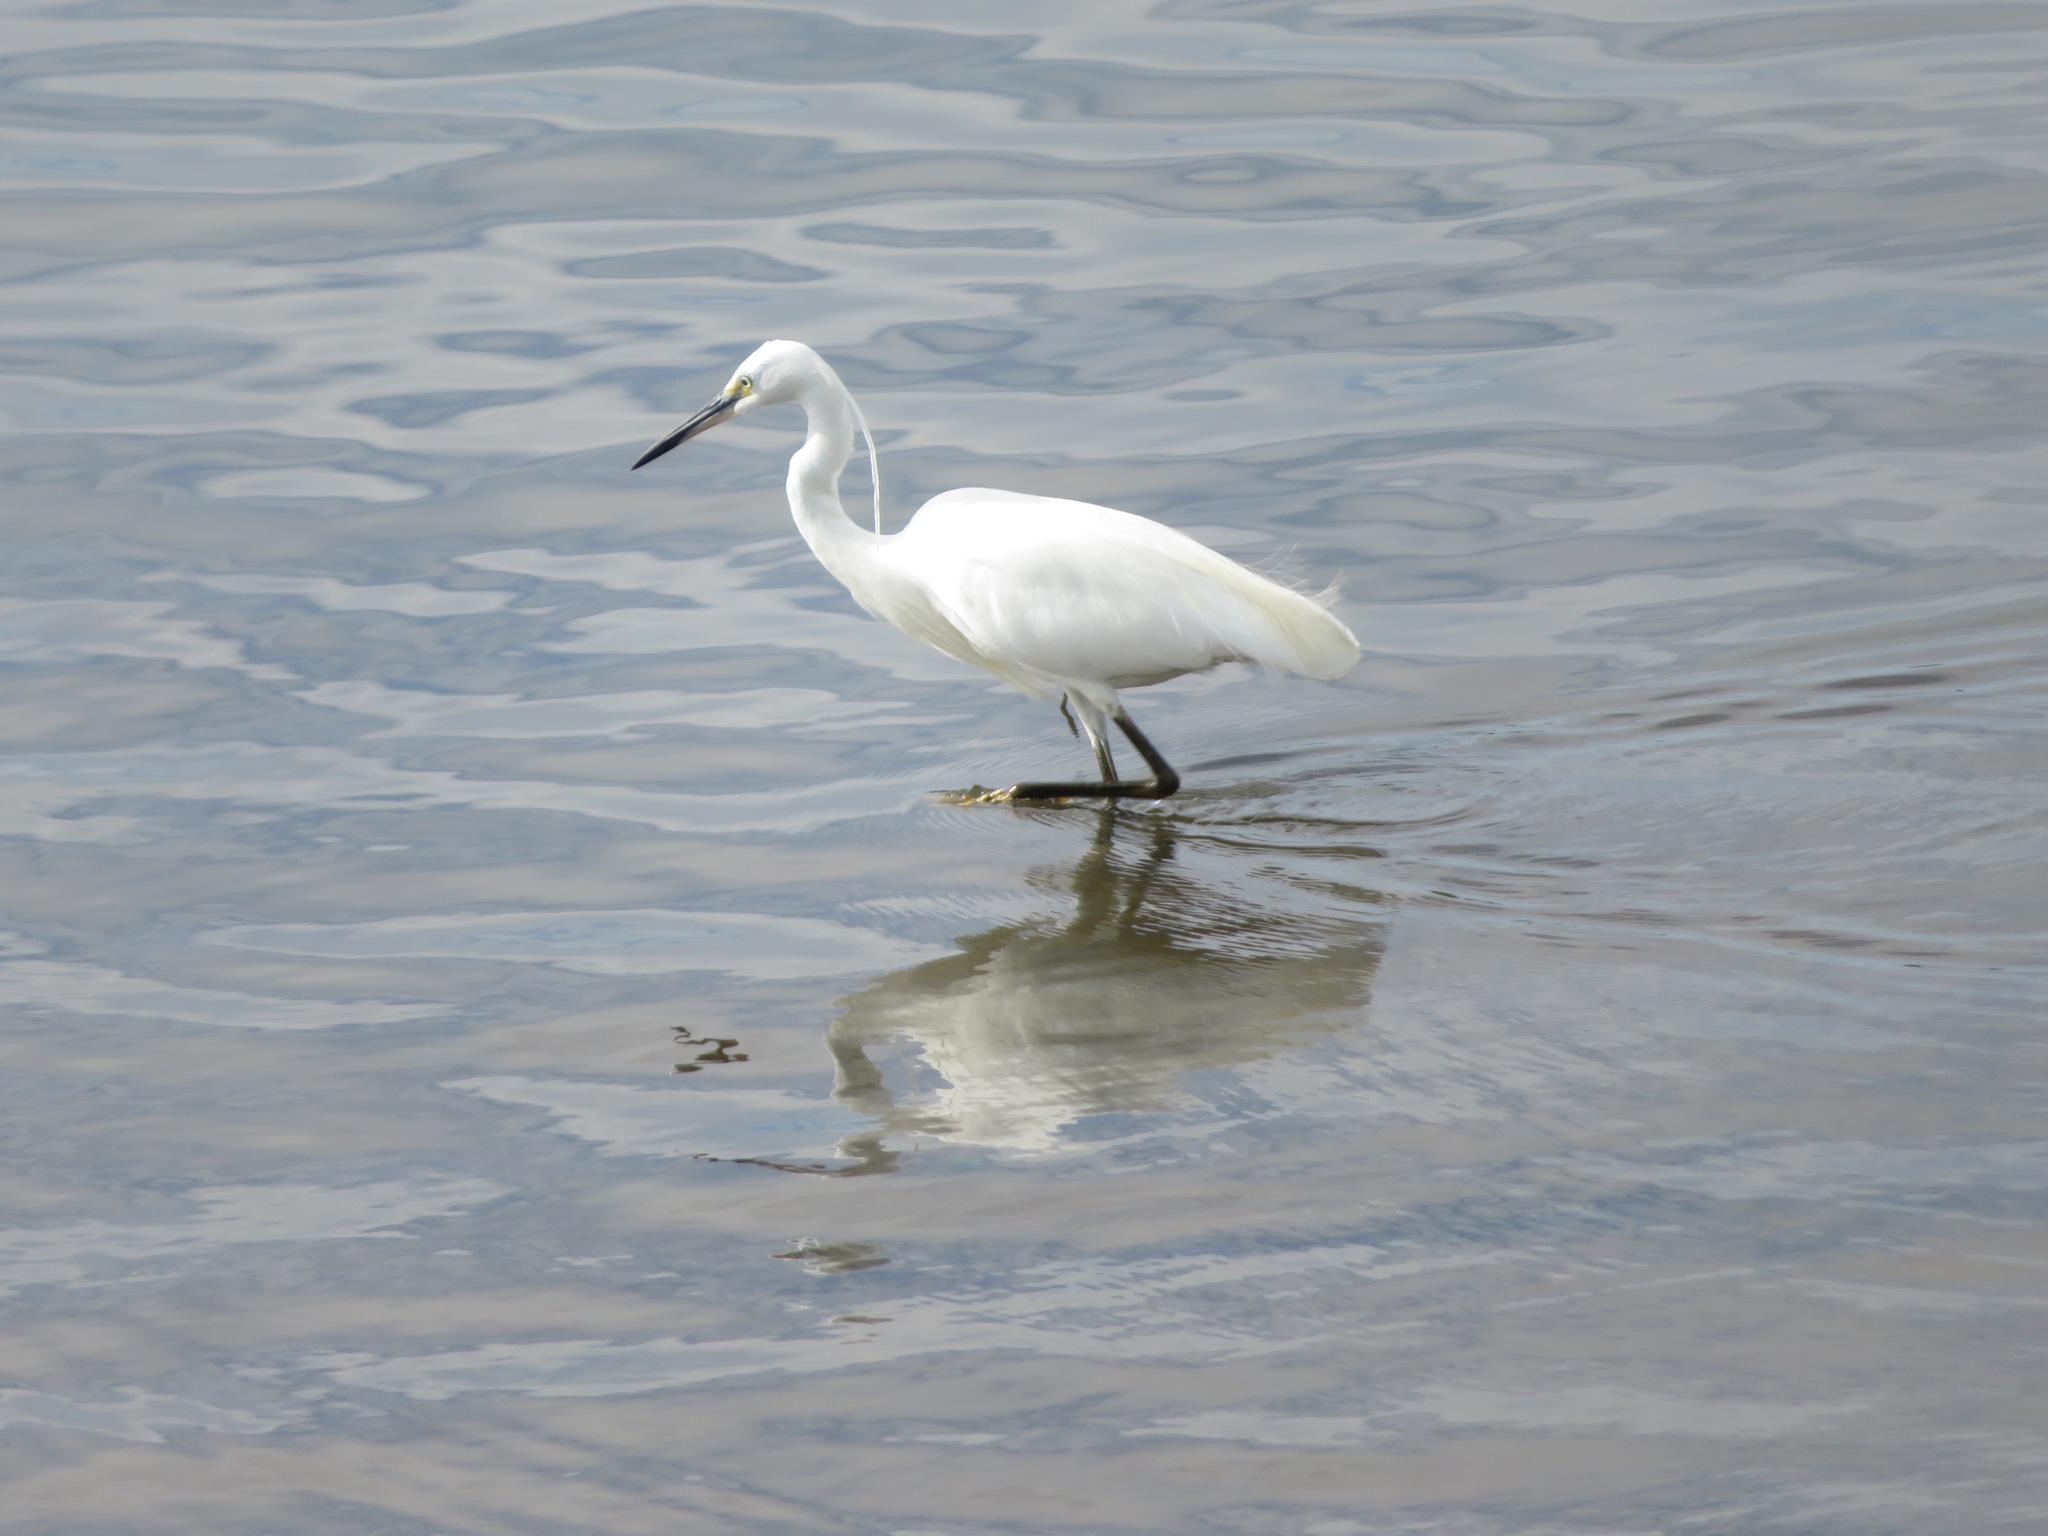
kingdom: Animalia
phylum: Chordata
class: Aves
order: Pelecaniformes
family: Ardeidae
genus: Egretta
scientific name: Egretta garzetta
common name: Little egret
